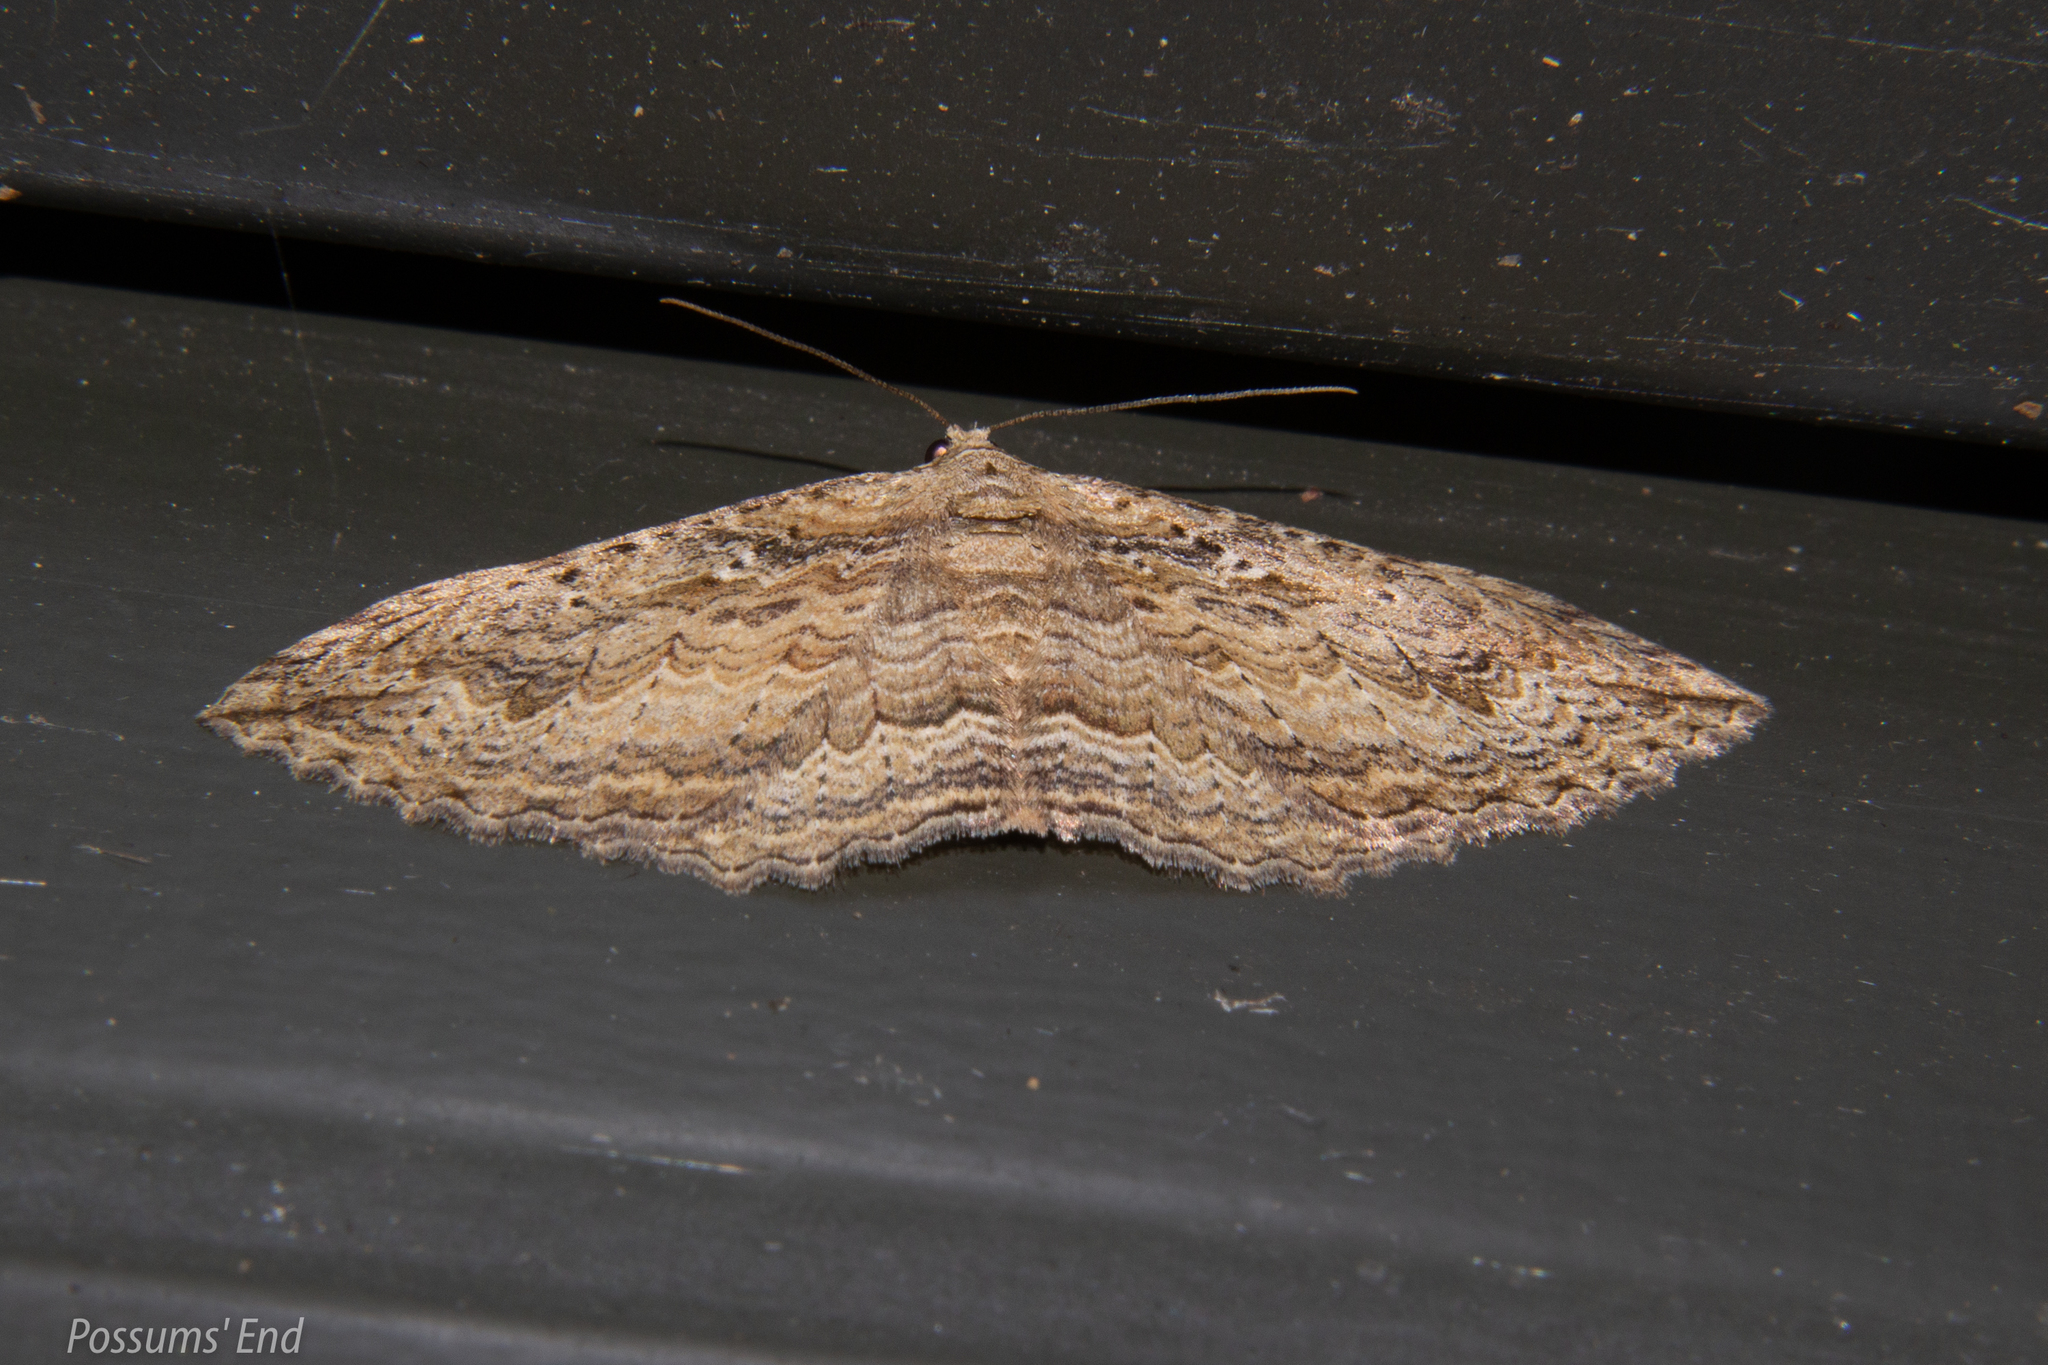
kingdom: Animalia
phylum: Arthropoda
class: Insecta
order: Lepidoptera
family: Geometridae
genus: Austrocidaria
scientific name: Austrocidaria gobiata
